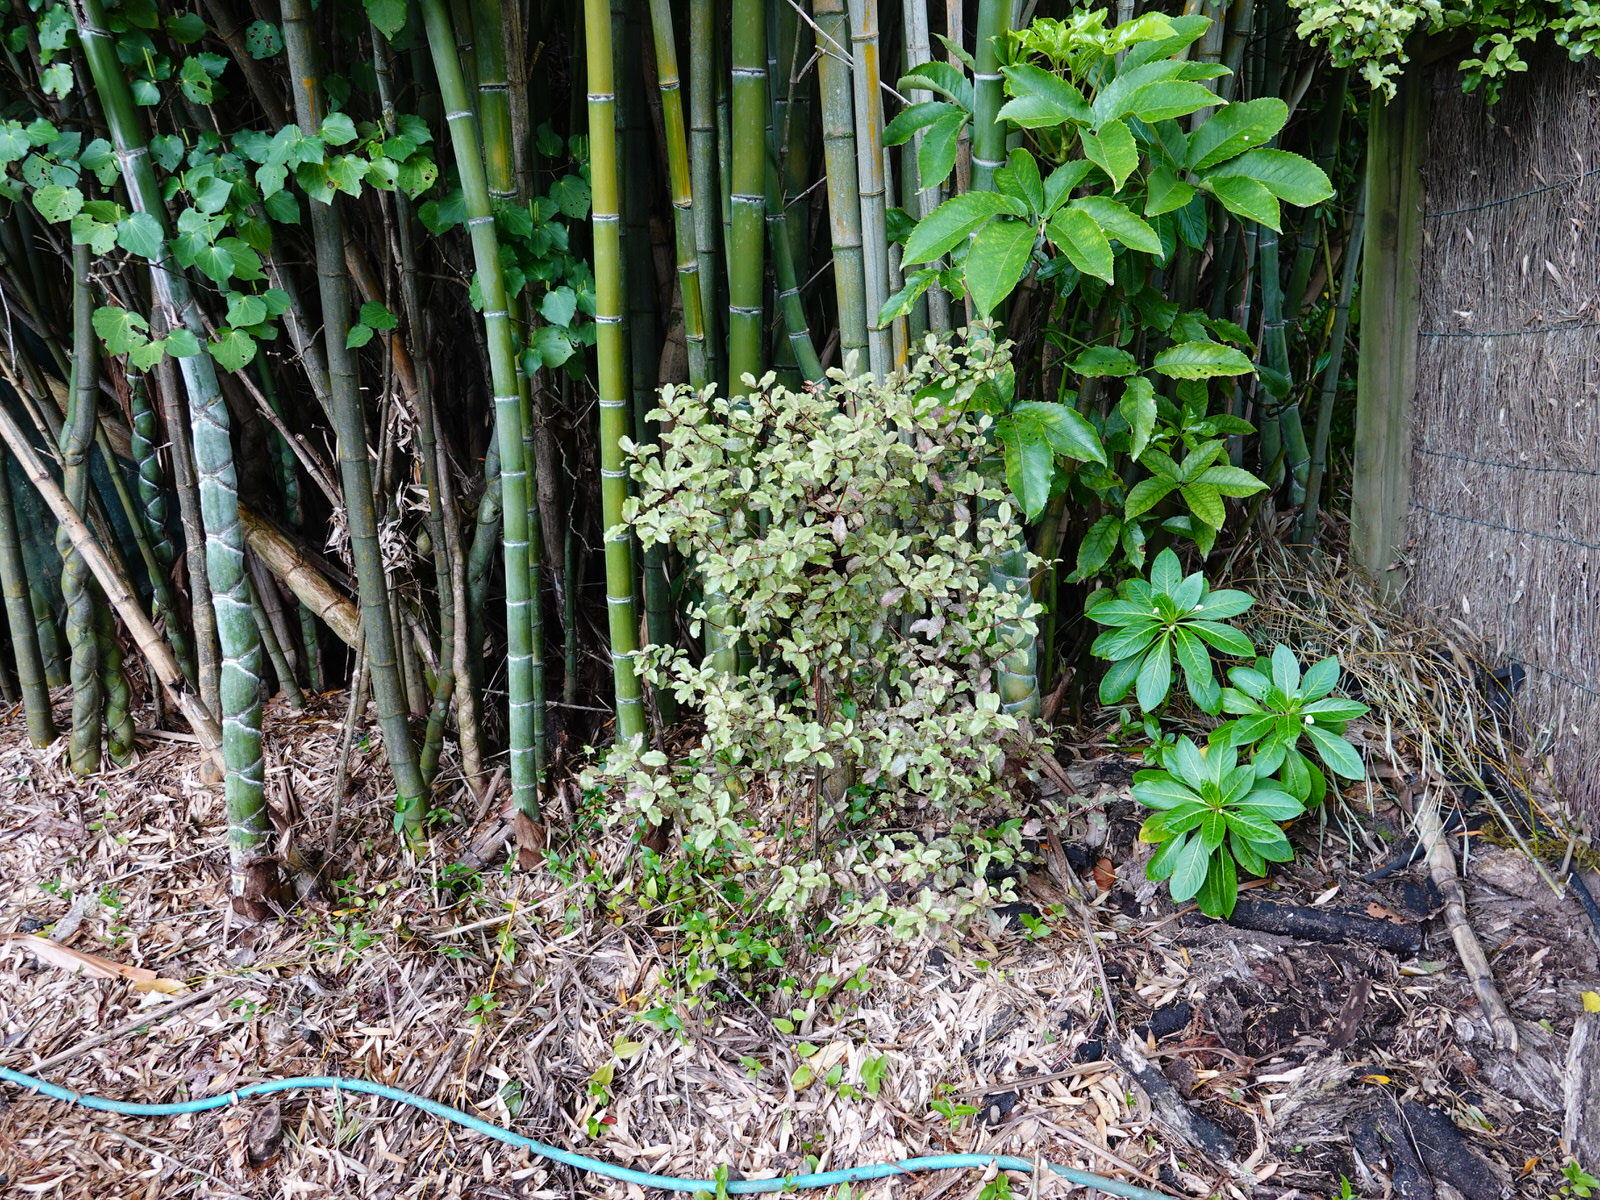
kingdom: Plantae
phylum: Tracheophyta
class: Magnoliopsida
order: Ericales
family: Primulaceae
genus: Myrsine
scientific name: Myrsine australis
